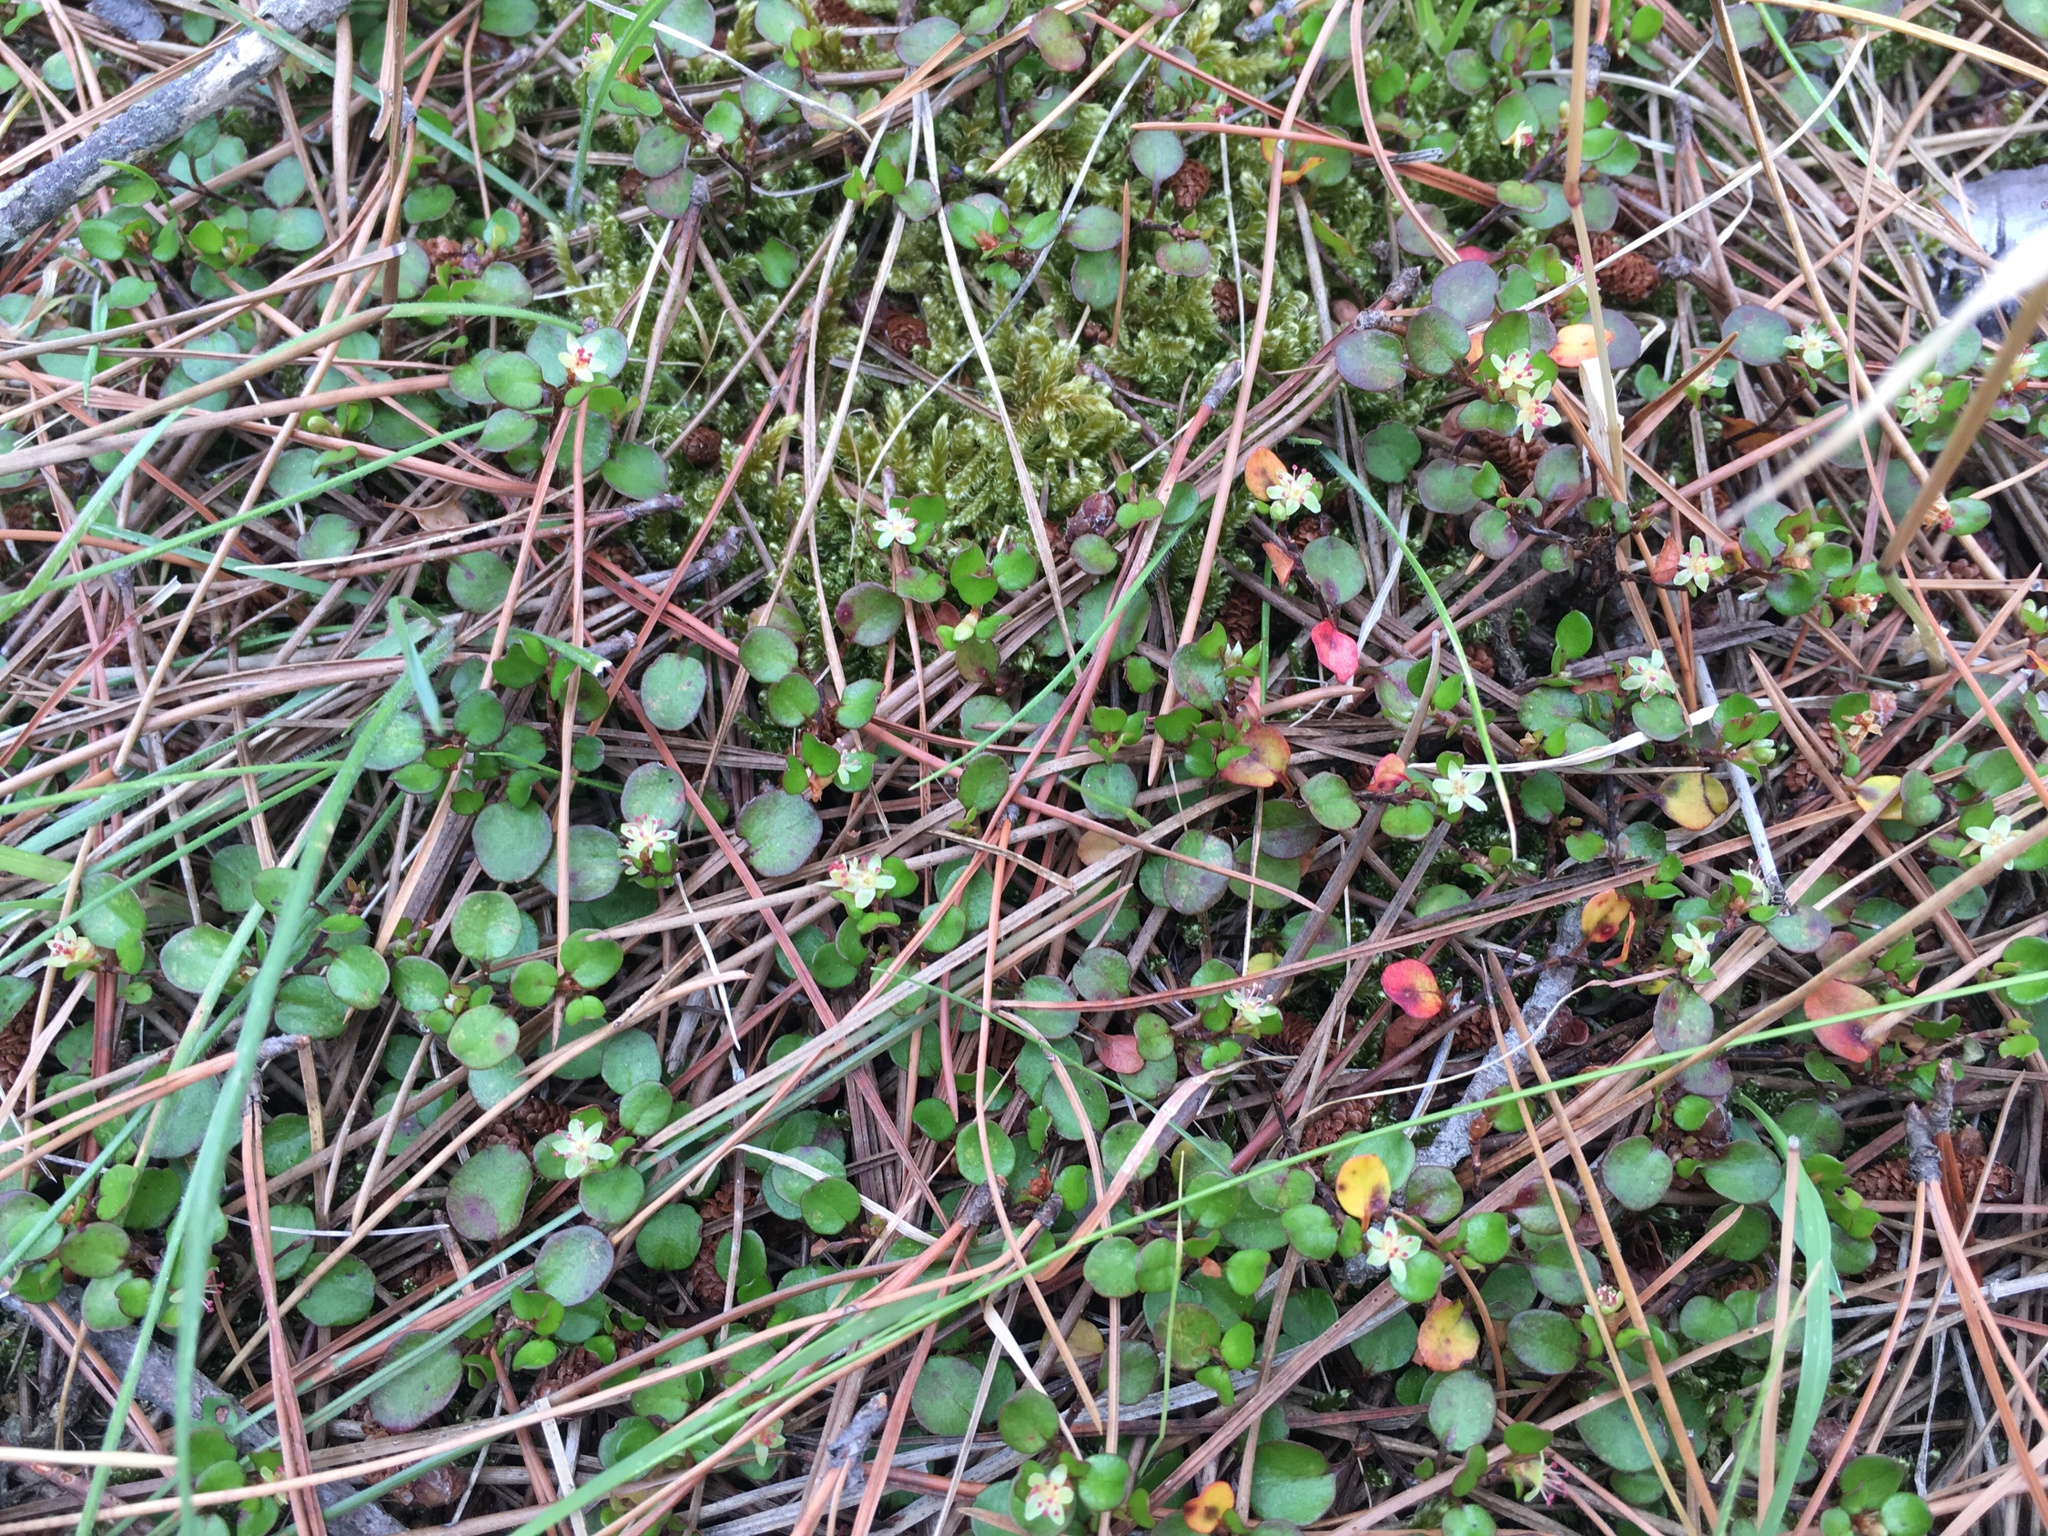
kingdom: Plantae
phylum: Tracheophyta
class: Magnoliopsida
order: Caryophyllales
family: Polygonaceae
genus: Muehlenbeckia
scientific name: Muehlenbeckia axillaris
